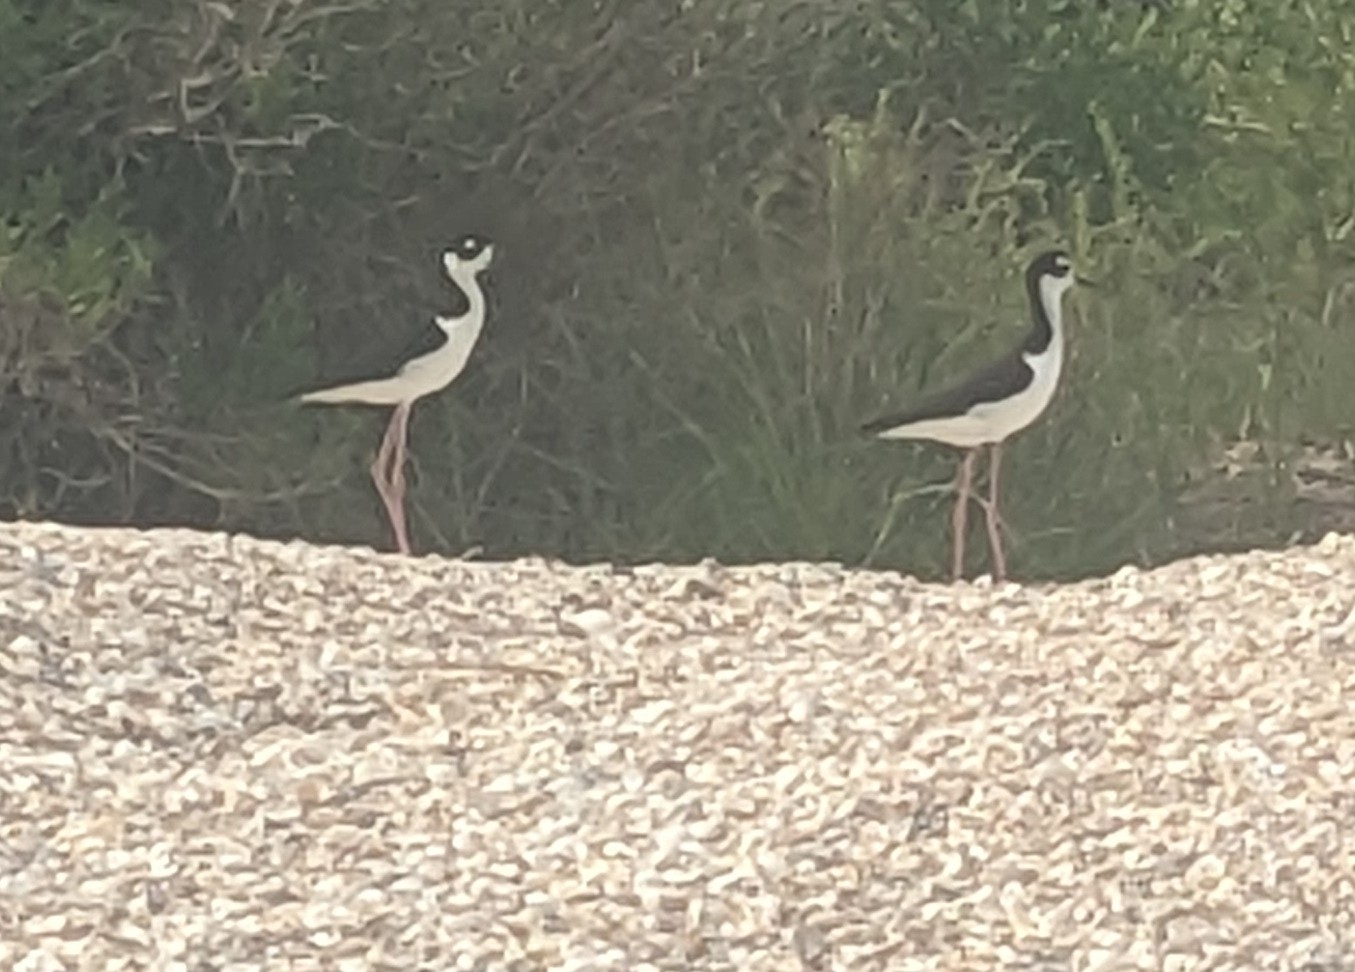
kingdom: Animalia
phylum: Chordata
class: Aves
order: Charadriiformes
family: Recurvirostridae
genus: Himantopus
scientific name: Himantopus mexicanus
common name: Black-necked stilt
